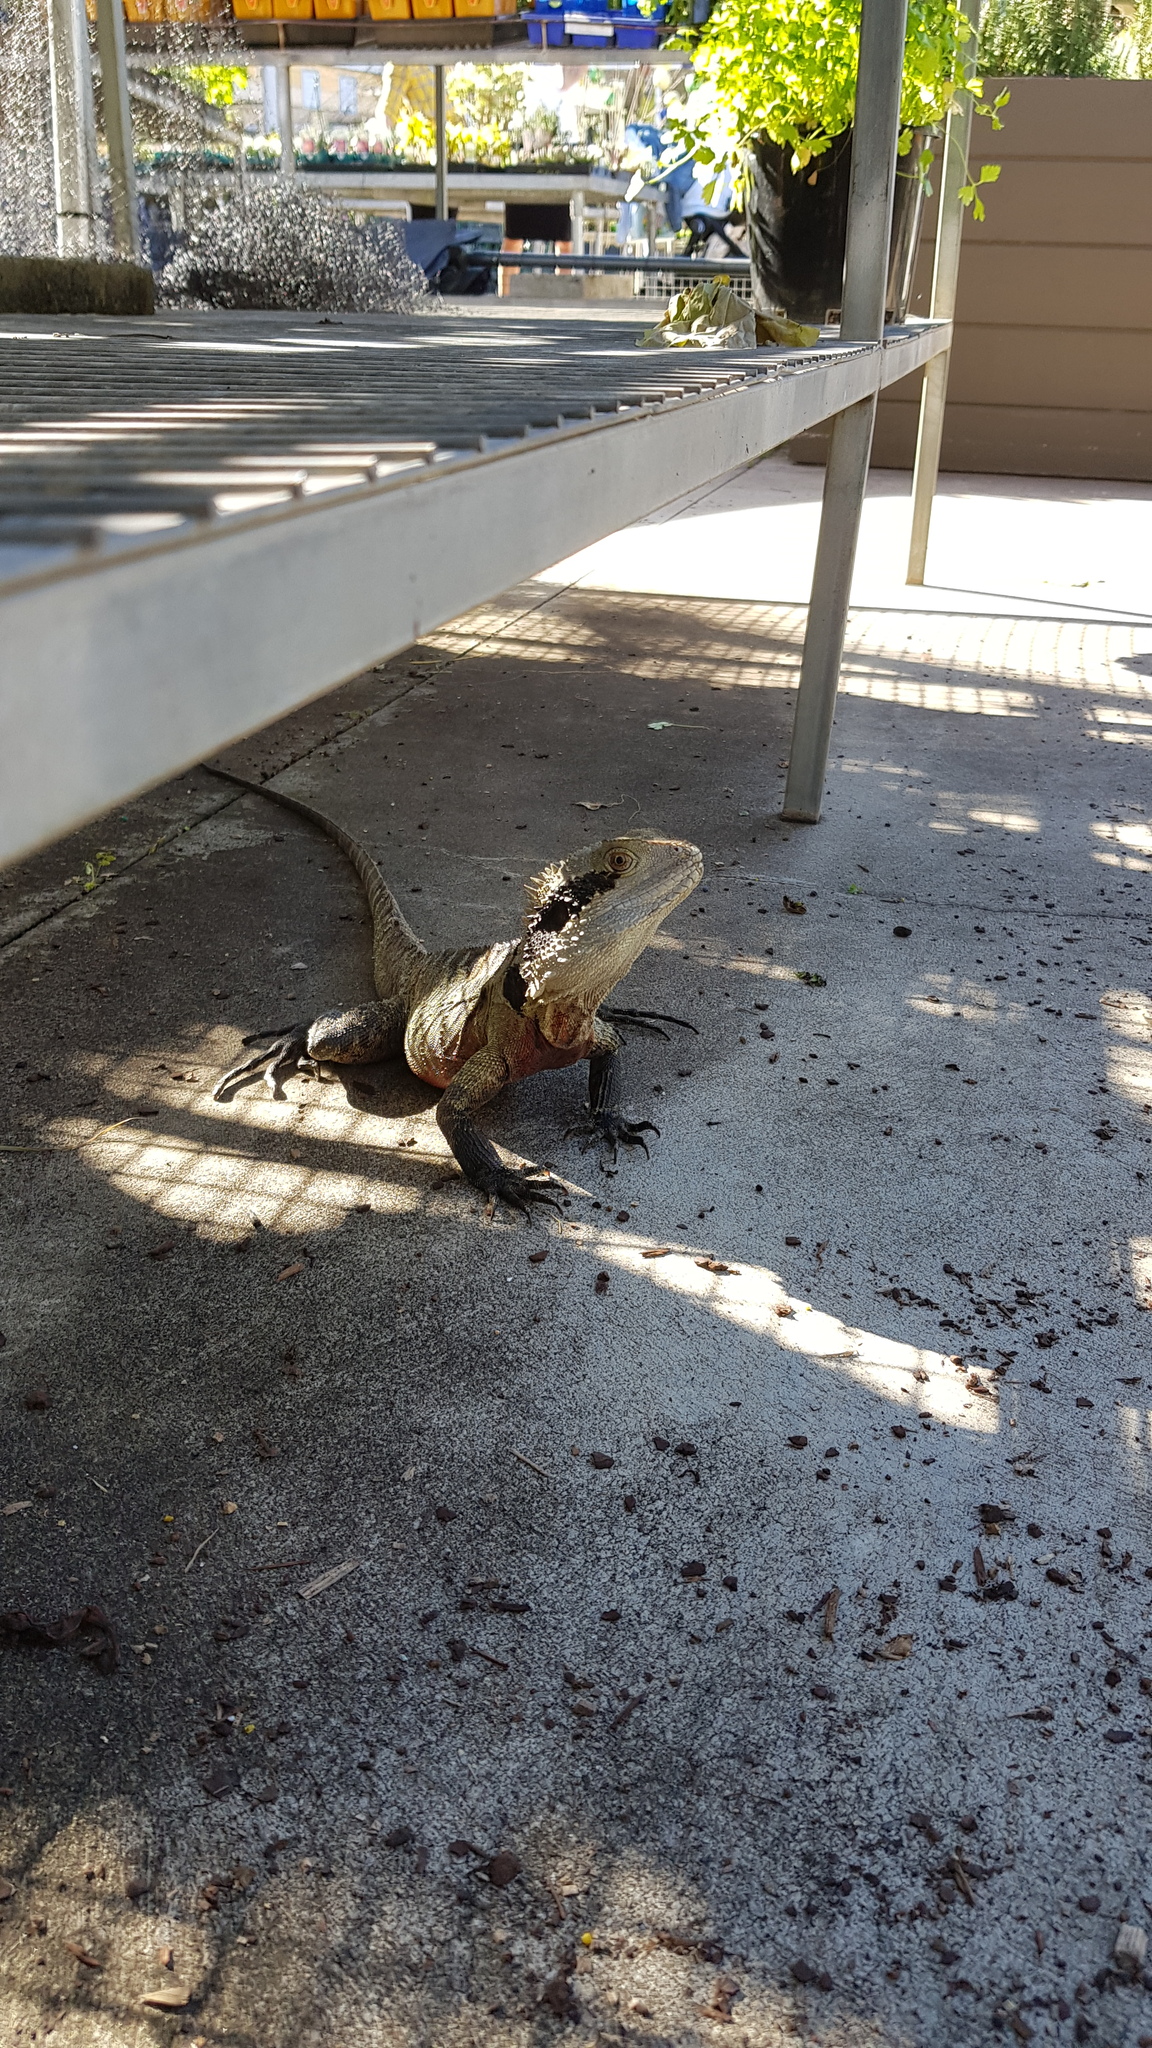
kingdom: Animalia
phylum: Chordata
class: Squamata
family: Agamidae
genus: Intellagama
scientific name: Intellagama lesueurii
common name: Eastern water dragon
